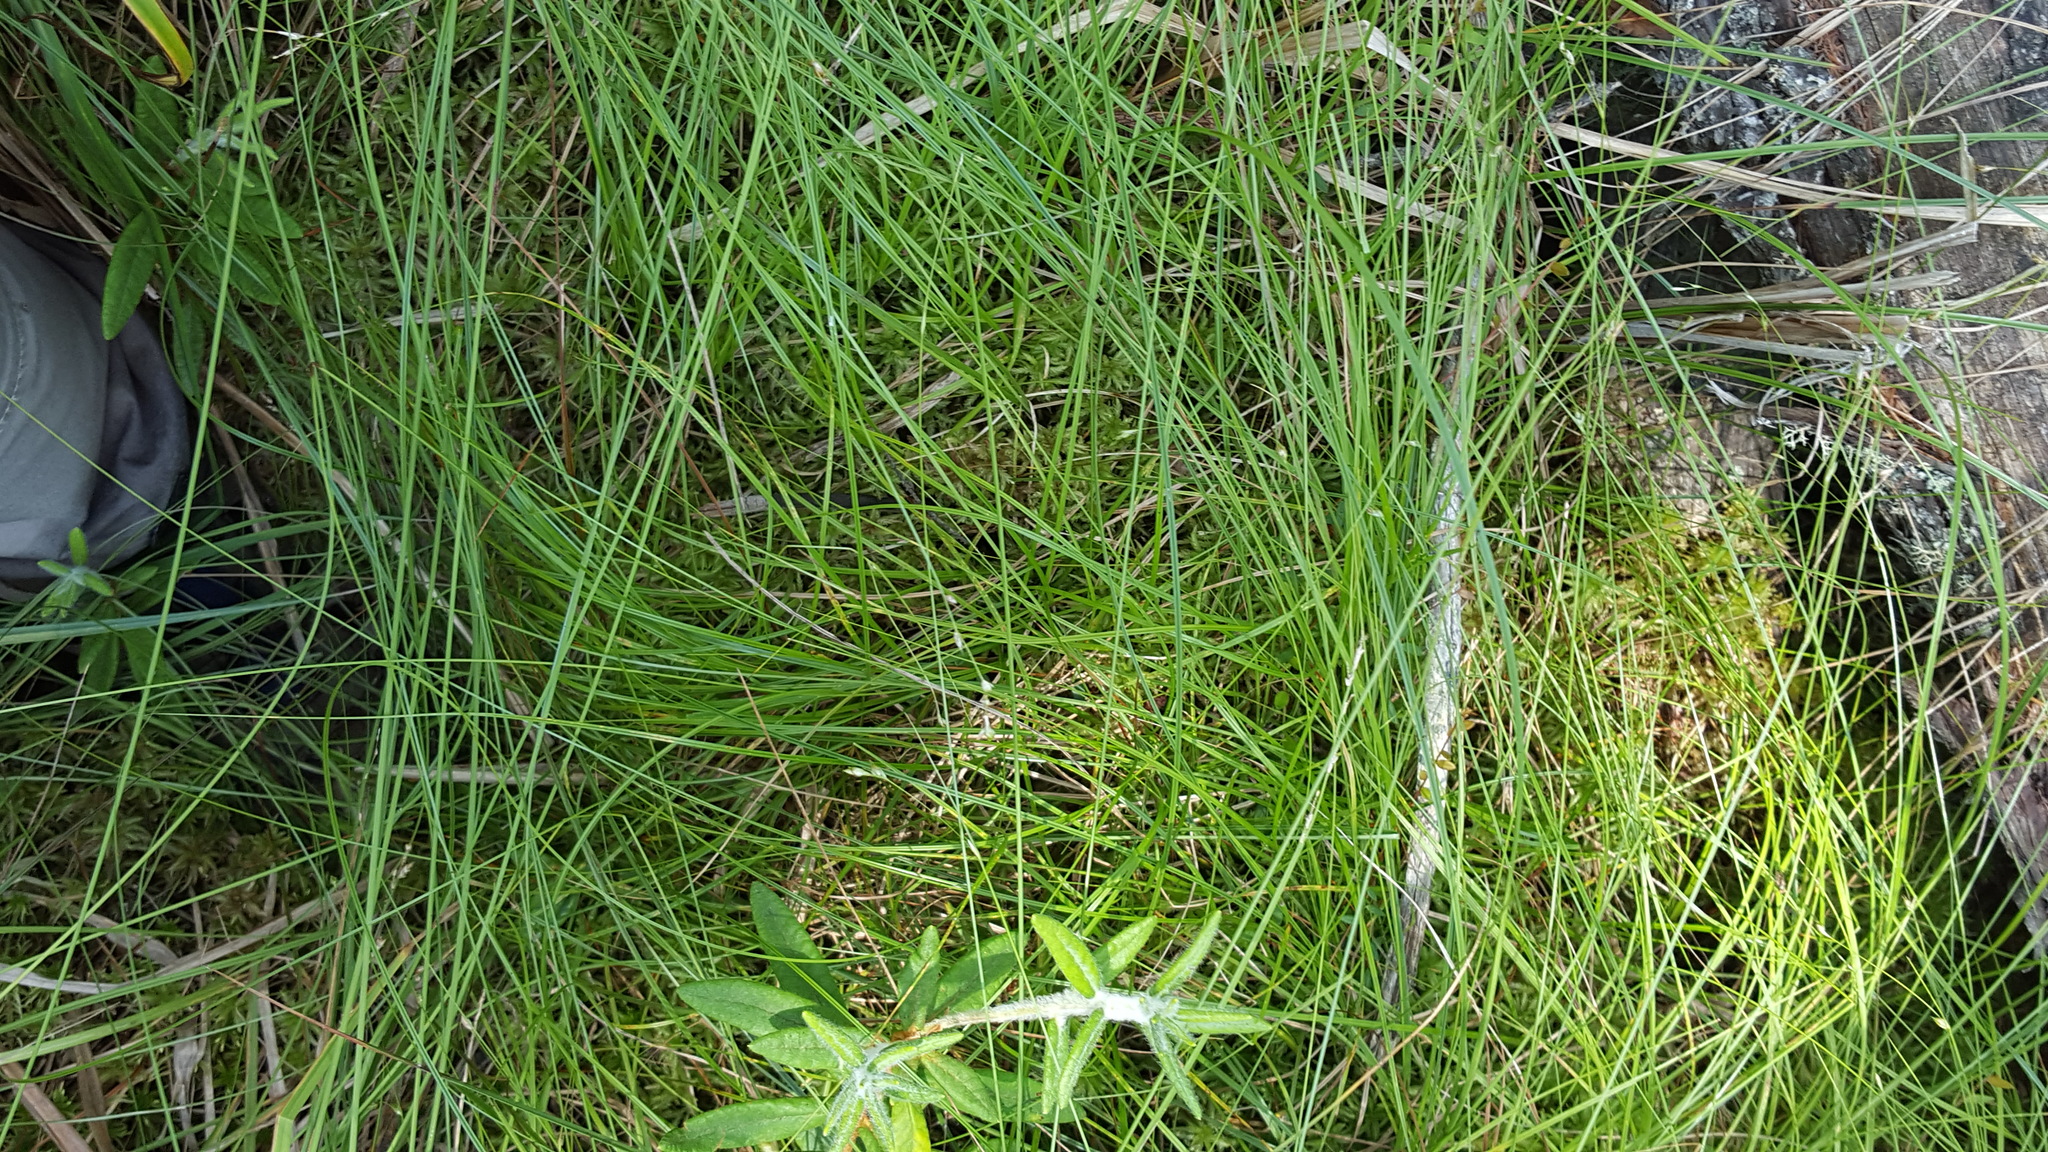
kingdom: Plantae
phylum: Tracheophyta
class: Liliopsida
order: Poales
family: Cyperaceae
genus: Carex
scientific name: Carex disperma
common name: Short-leaved sedge
